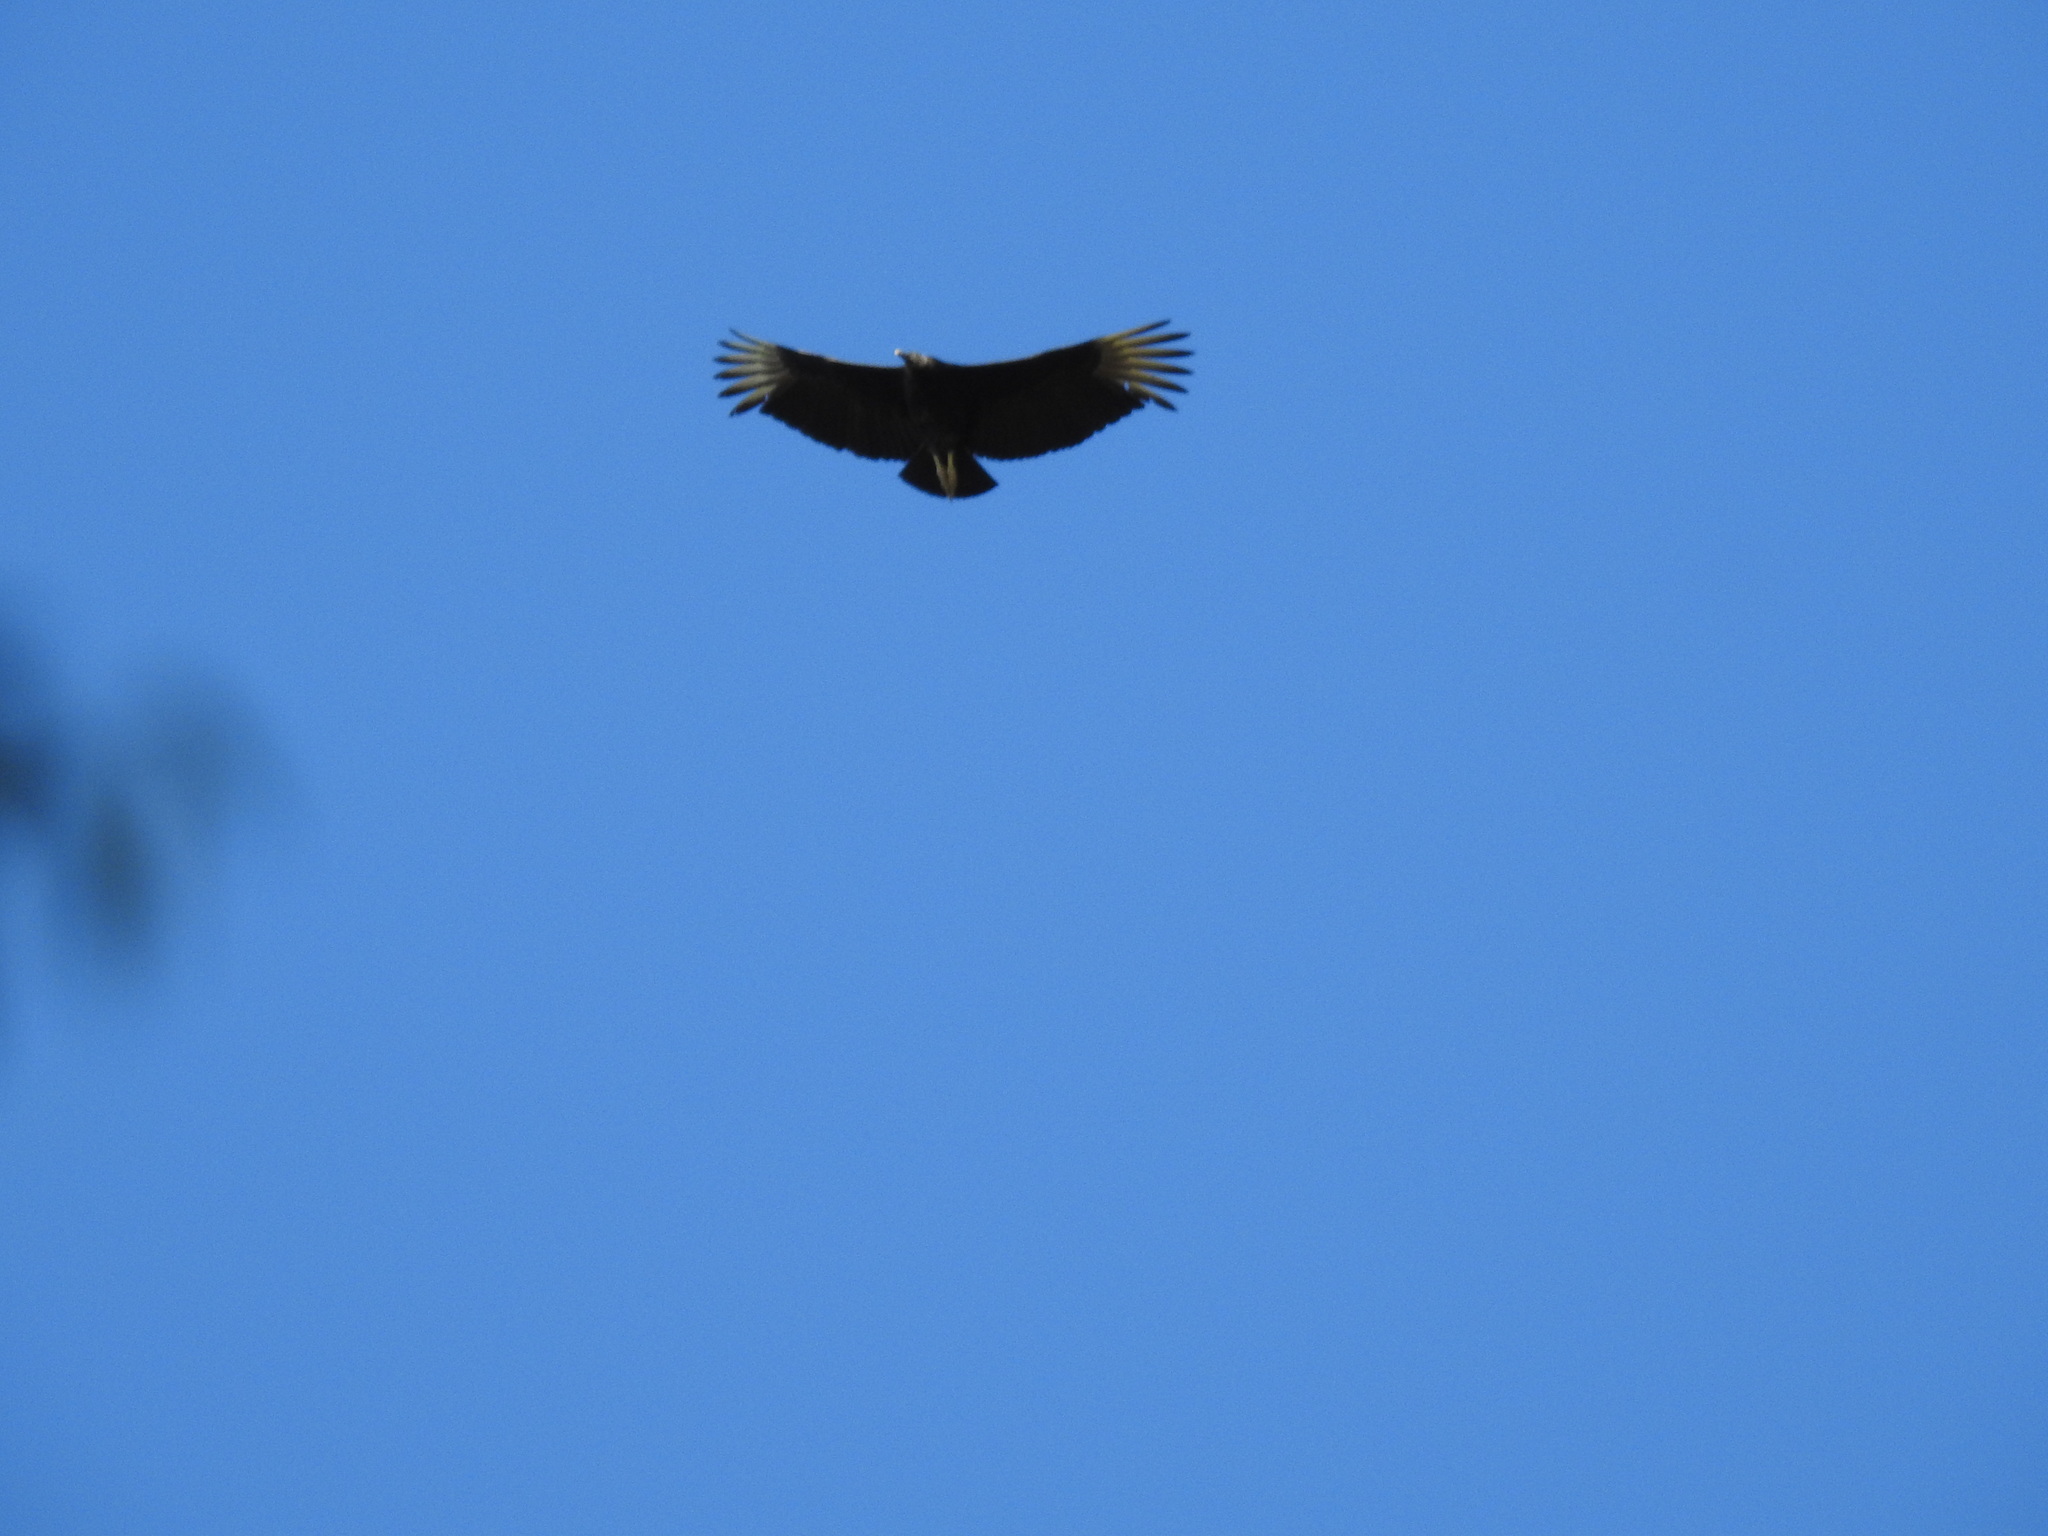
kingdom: Animalia
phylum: Chordata
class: Aves
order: Accipitriformes
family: Cathartidae
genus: Coragyps
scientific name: Coragyps atratus
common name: Black vulture
